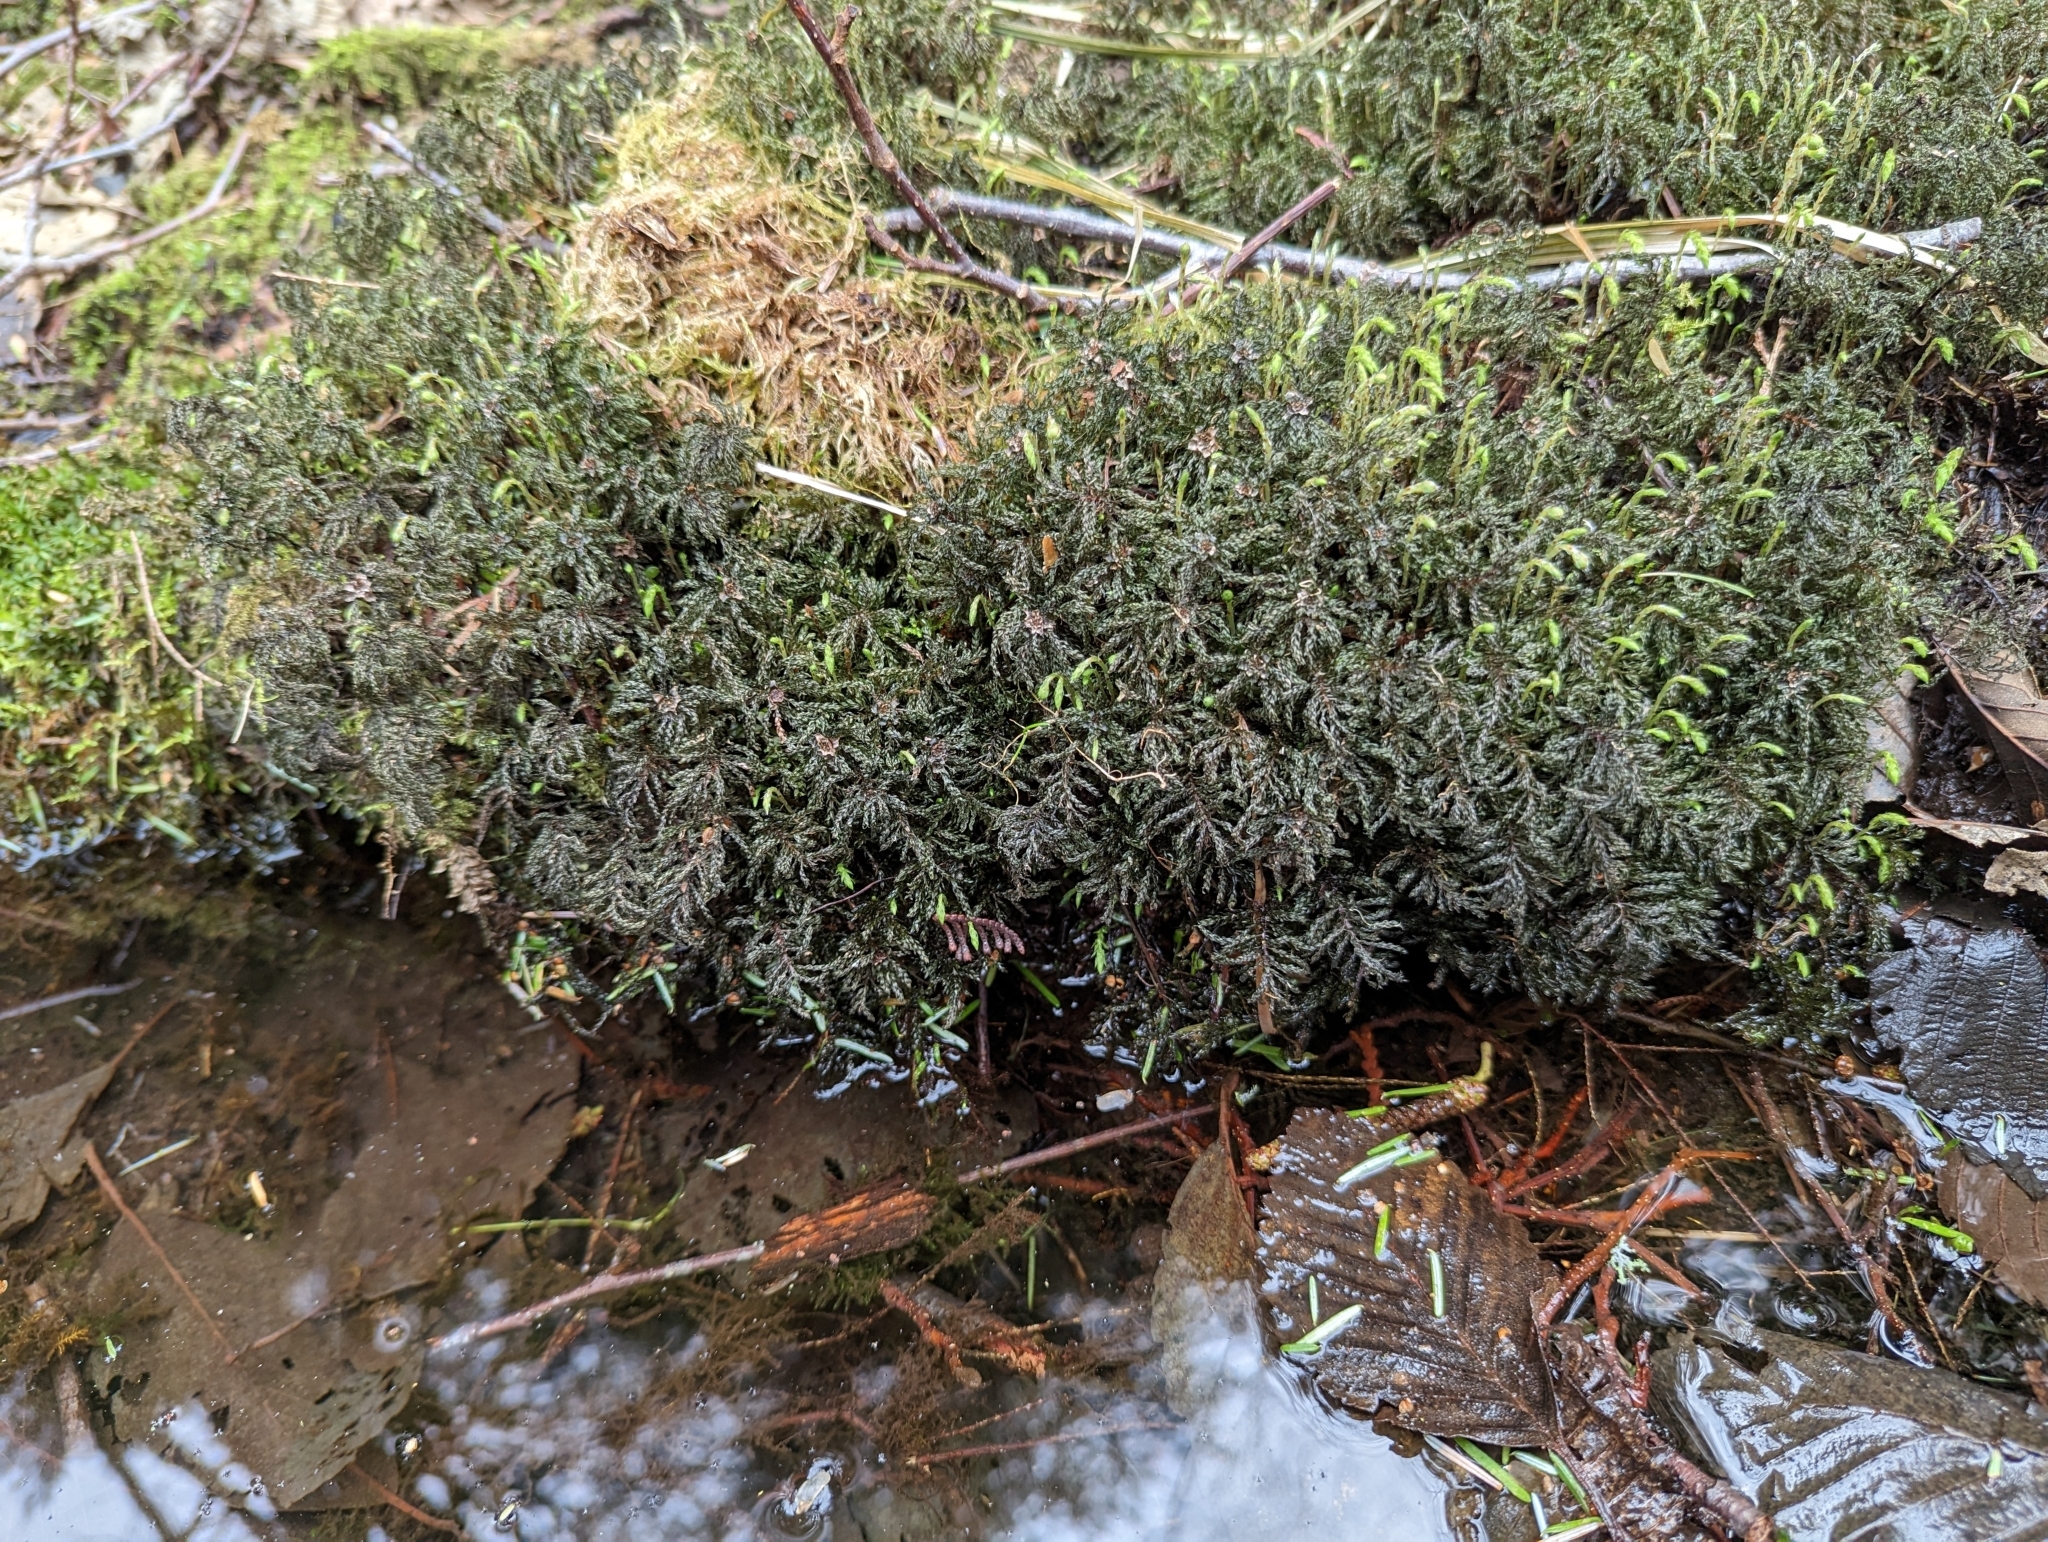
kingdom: Plantae
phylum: Bryophyta
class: Bryopsida
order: Bryales
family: Mniaceae
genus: Leucolepis
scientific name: Leucolepis acanthoneura
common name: Leucolepis umbrella moss
